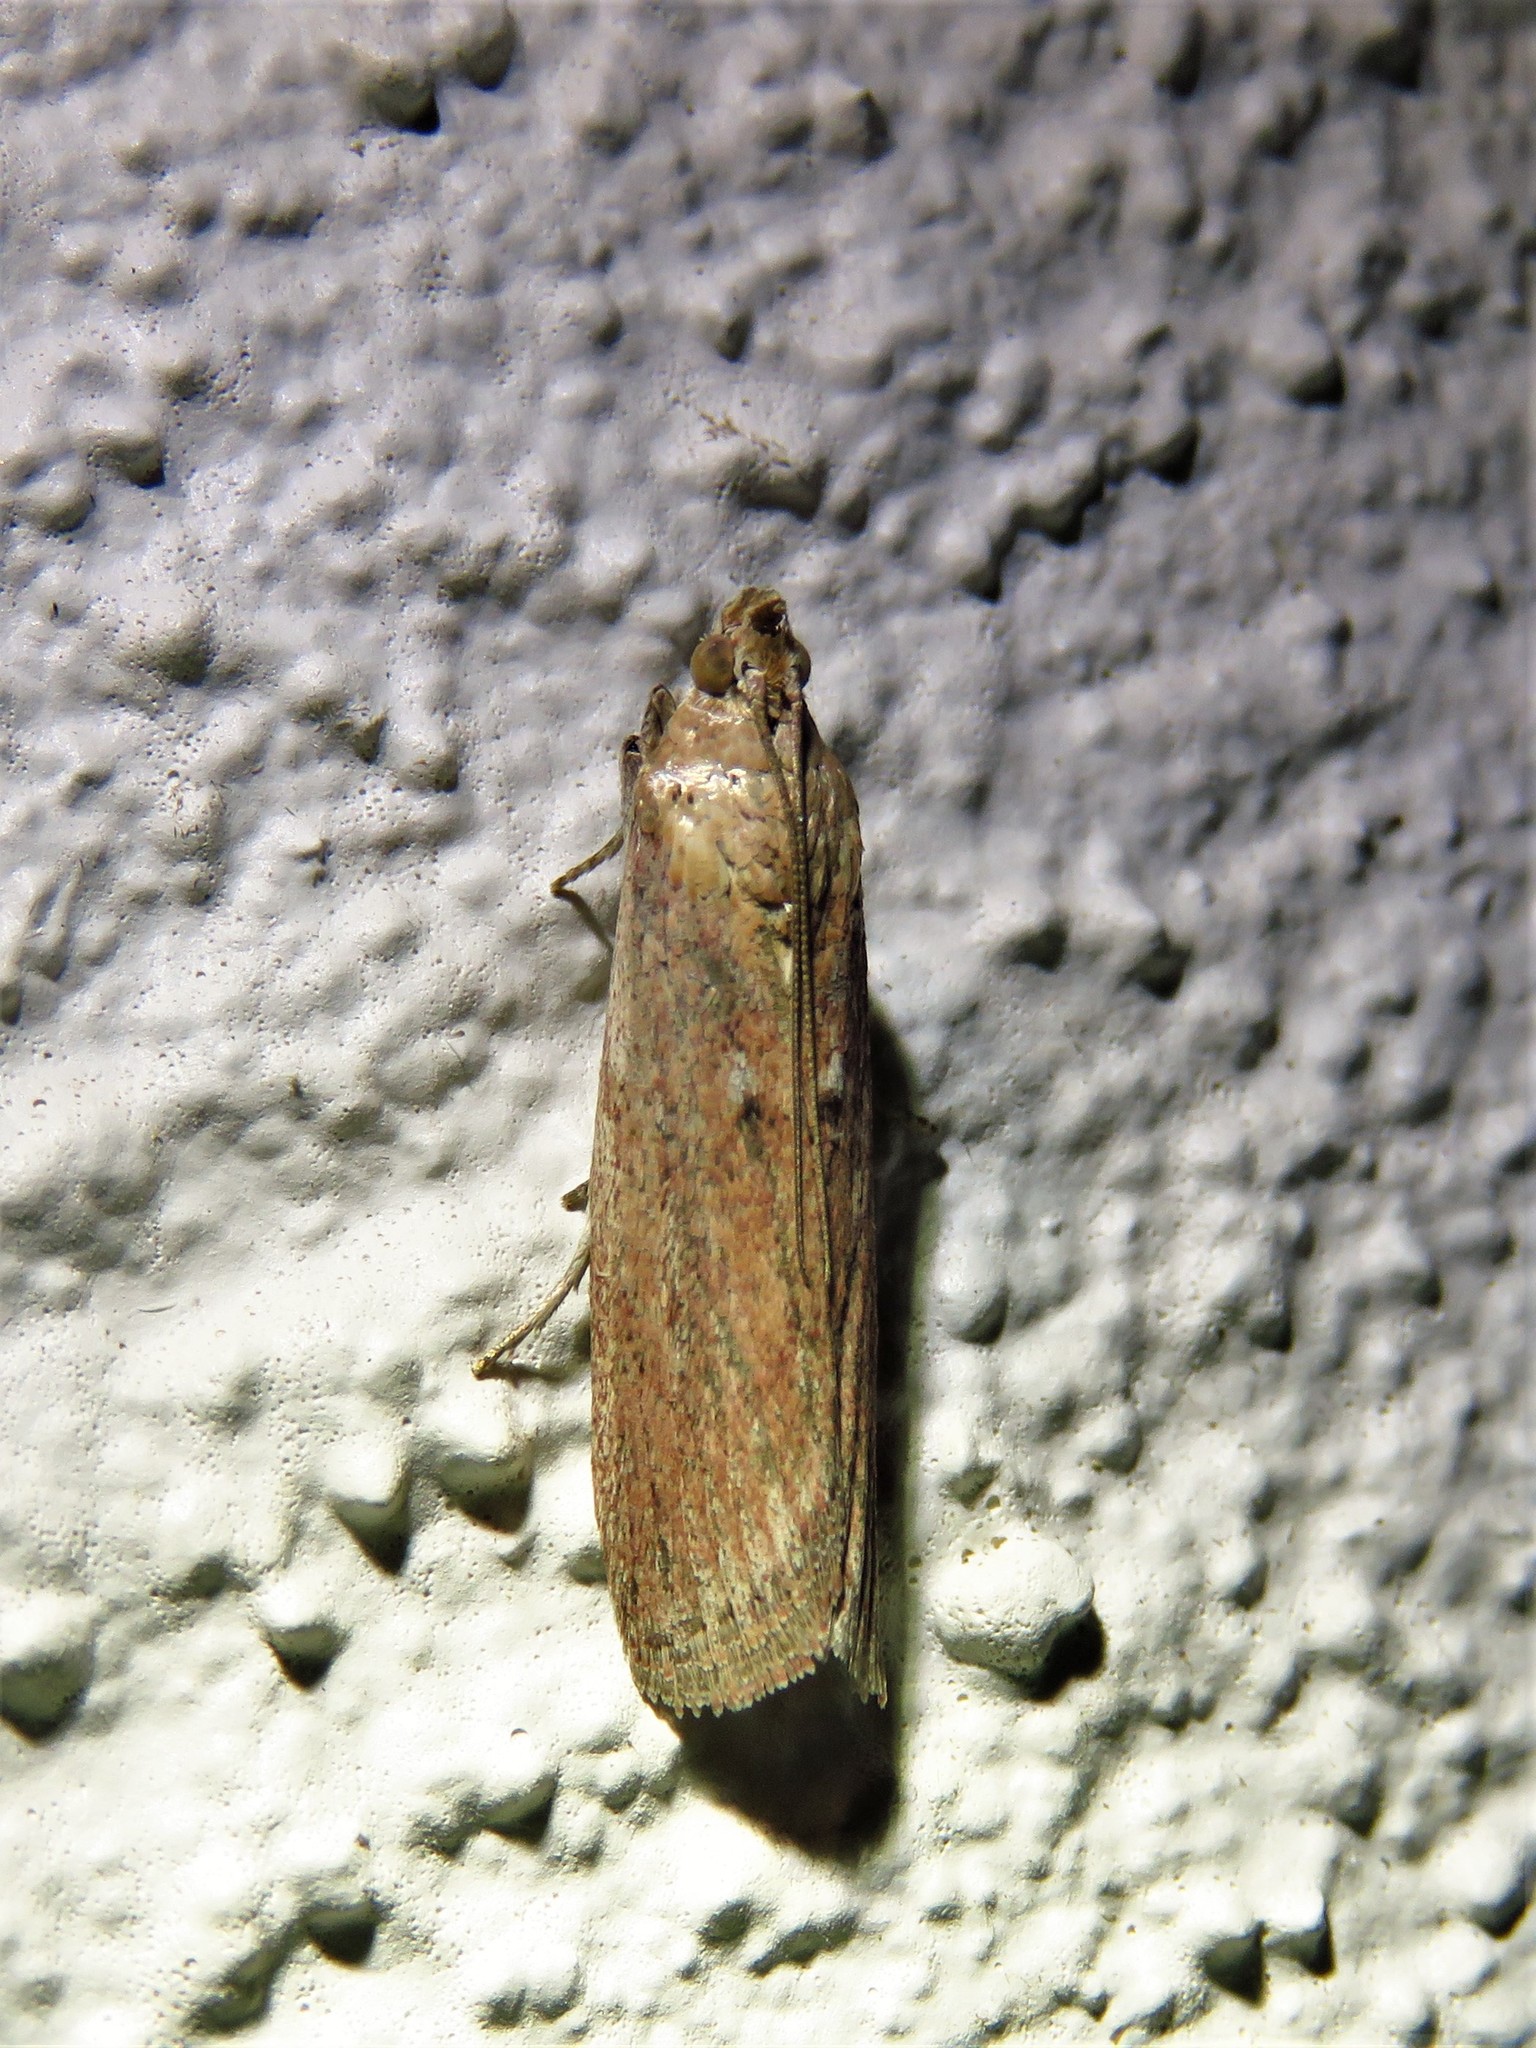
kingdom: Animalia
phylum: Arthropoda
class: Insecta
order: Lepidoptera
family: Pyralidae
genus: Stylopalpia
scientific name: Stylopalpia scobiella
